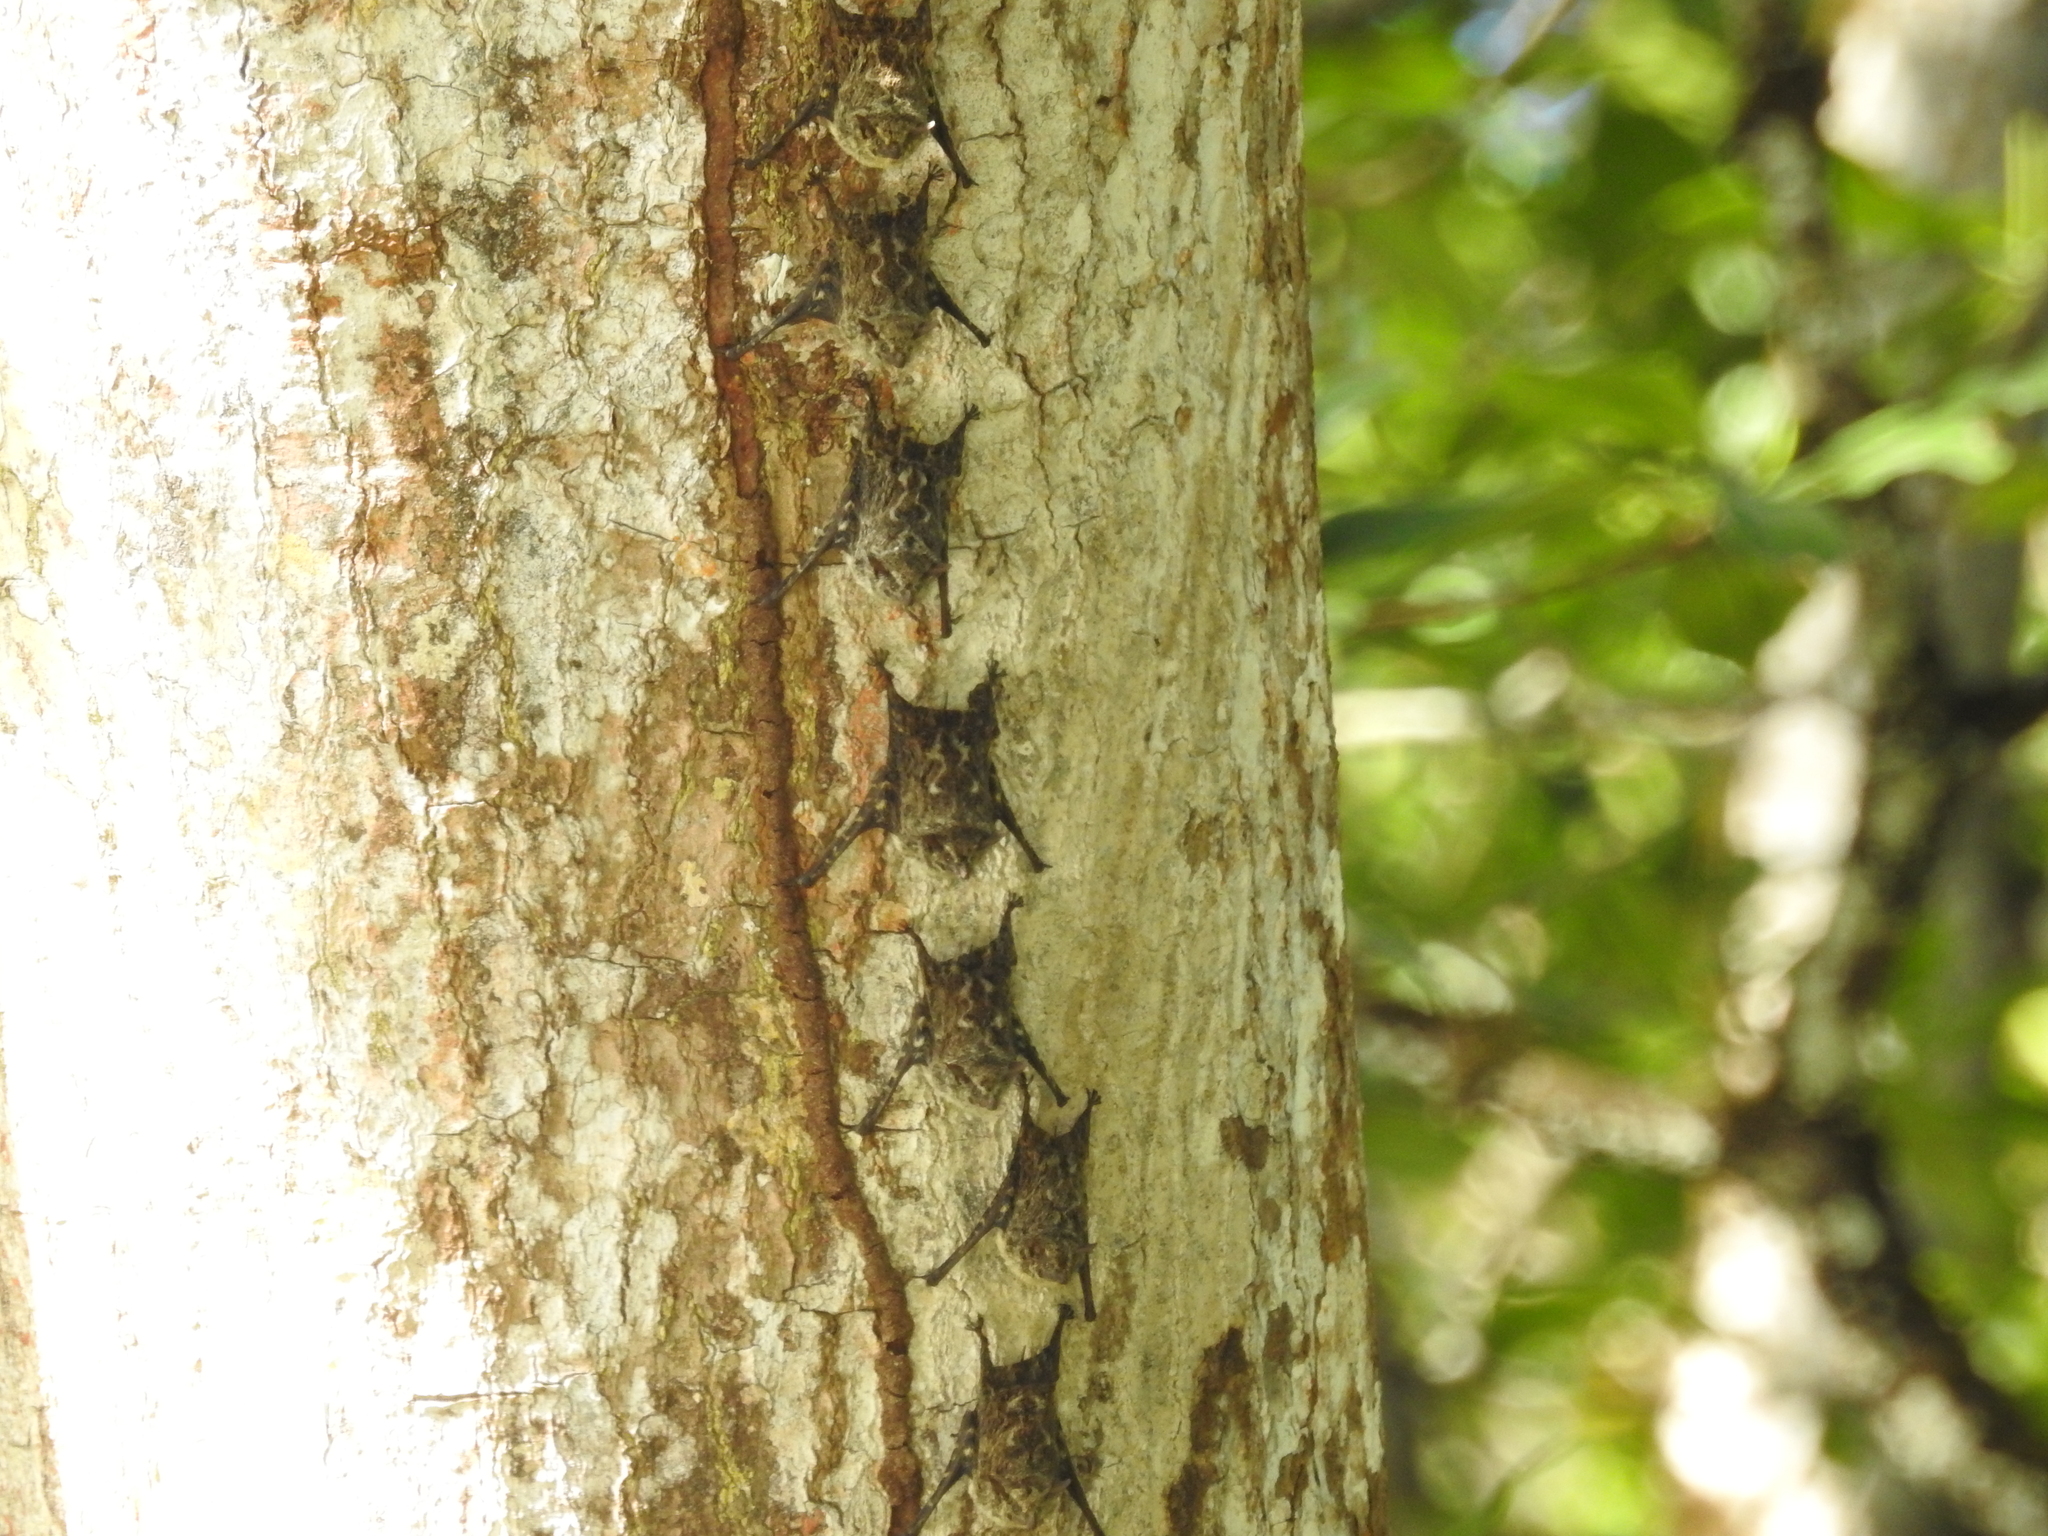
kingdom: Animalia
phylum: Chordata
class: Mammalia
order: Chiroptera
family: Emballonuridae
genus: Rhynchonycteris
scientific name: Rhynchonycteris naso
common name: Proboscis bat
